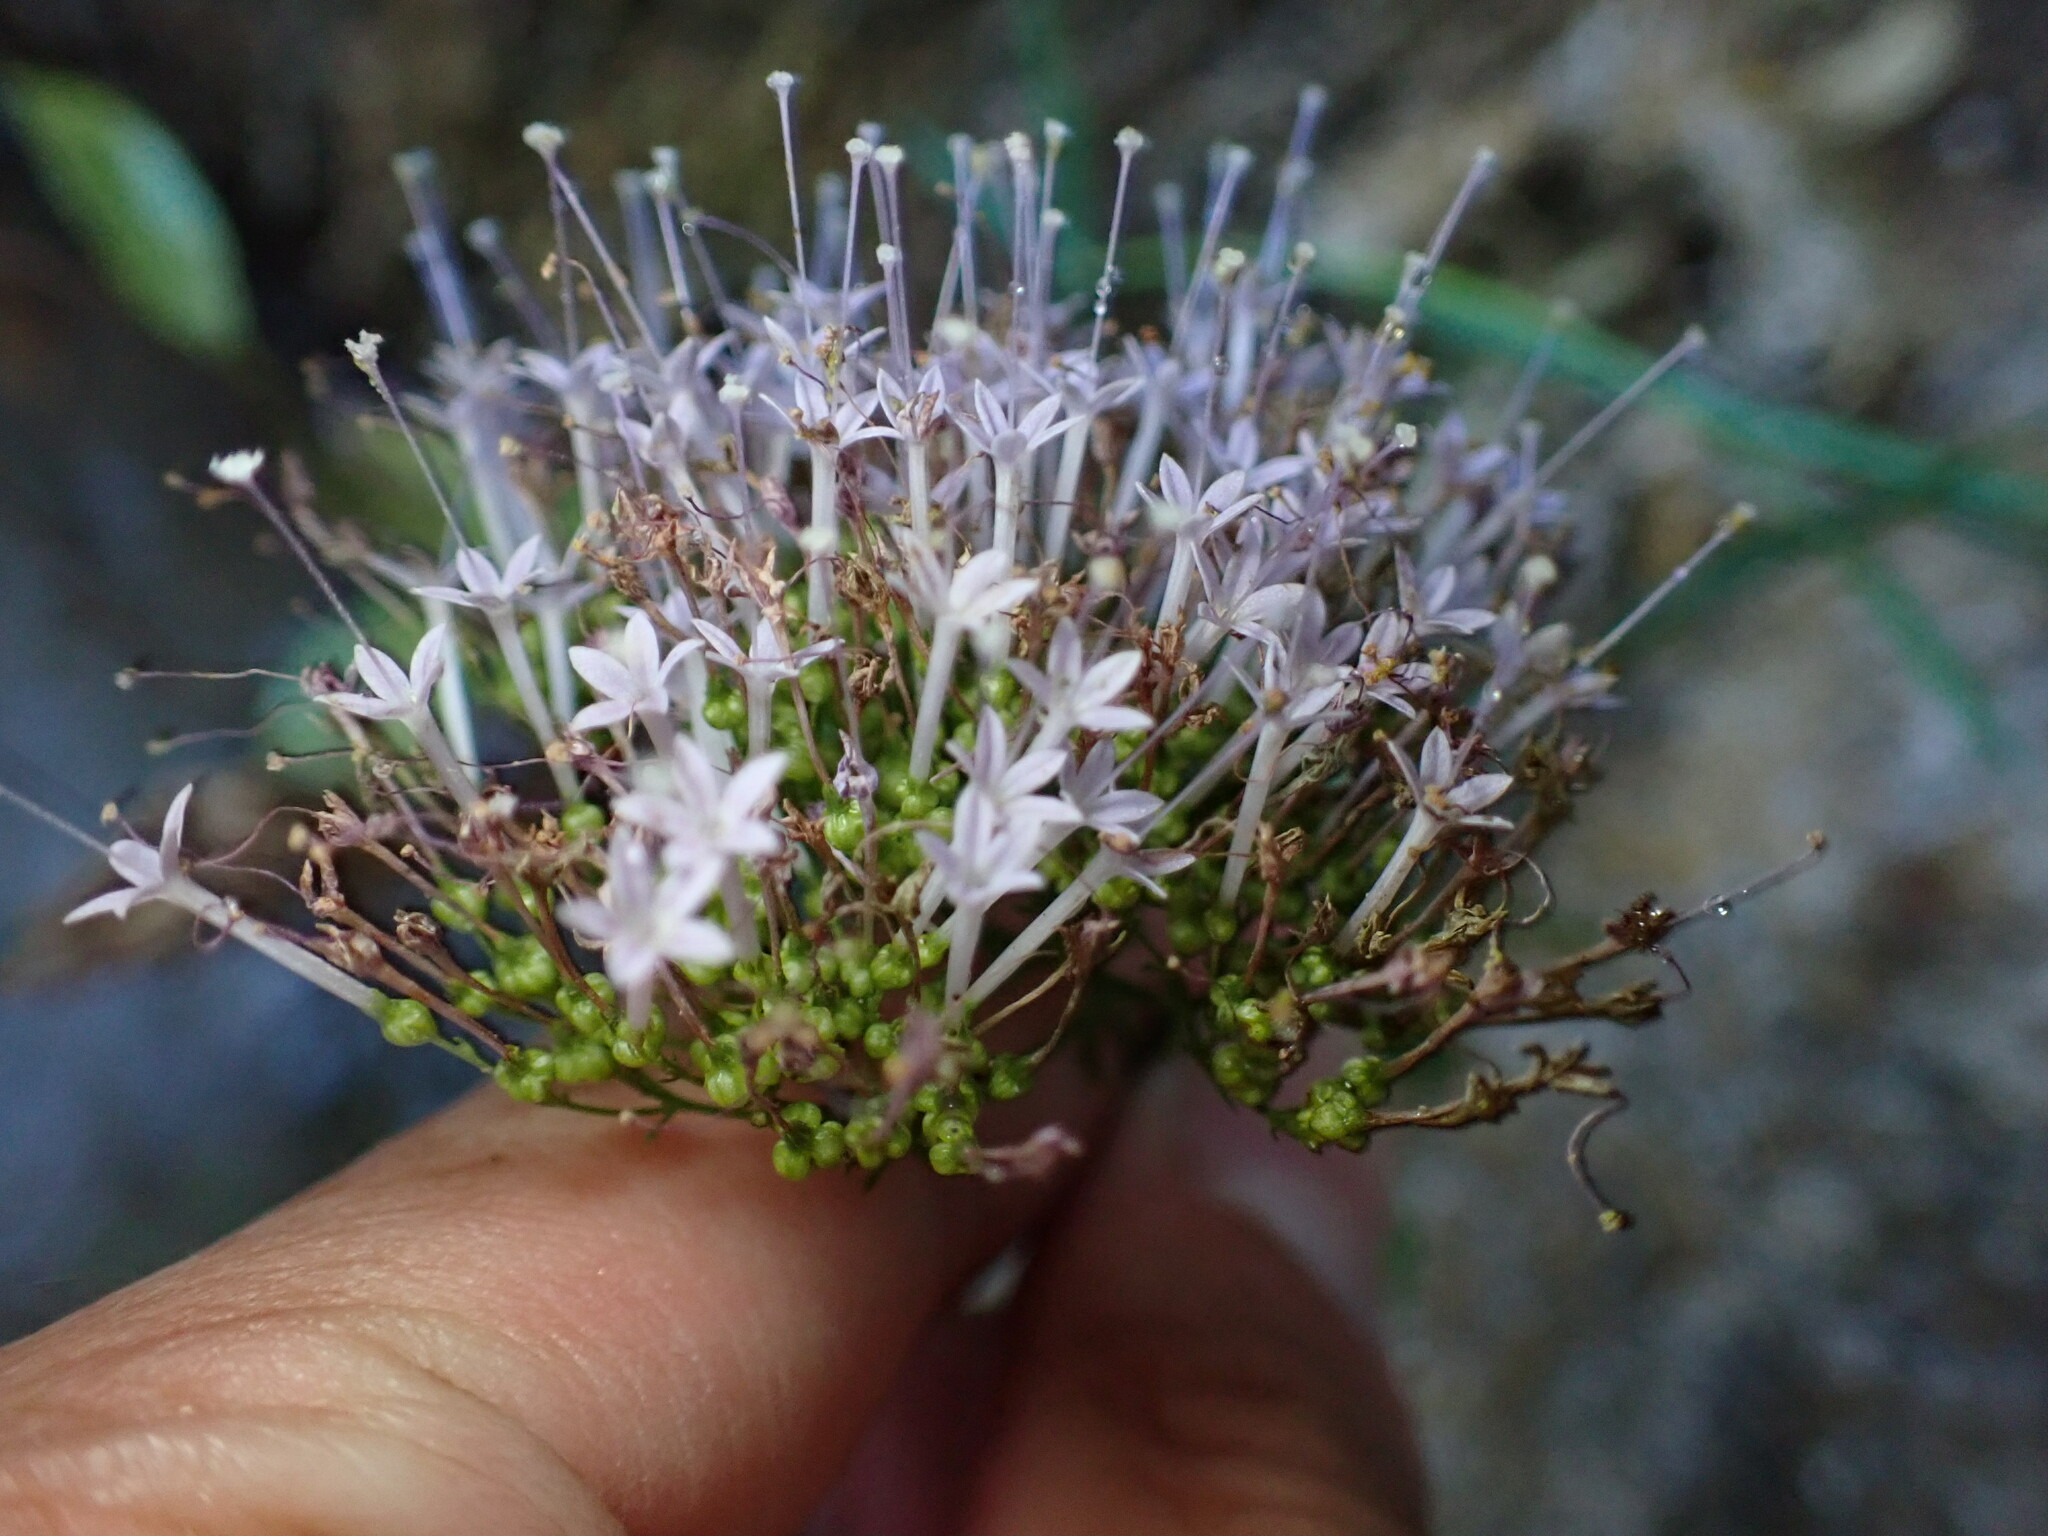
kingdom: Plantae
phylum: Tracheophyta
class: Magnoliopsida
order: Asterales
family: Campanulaceae
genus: Trachelium
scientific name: Trachelium caeruleum
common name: Throatwort
